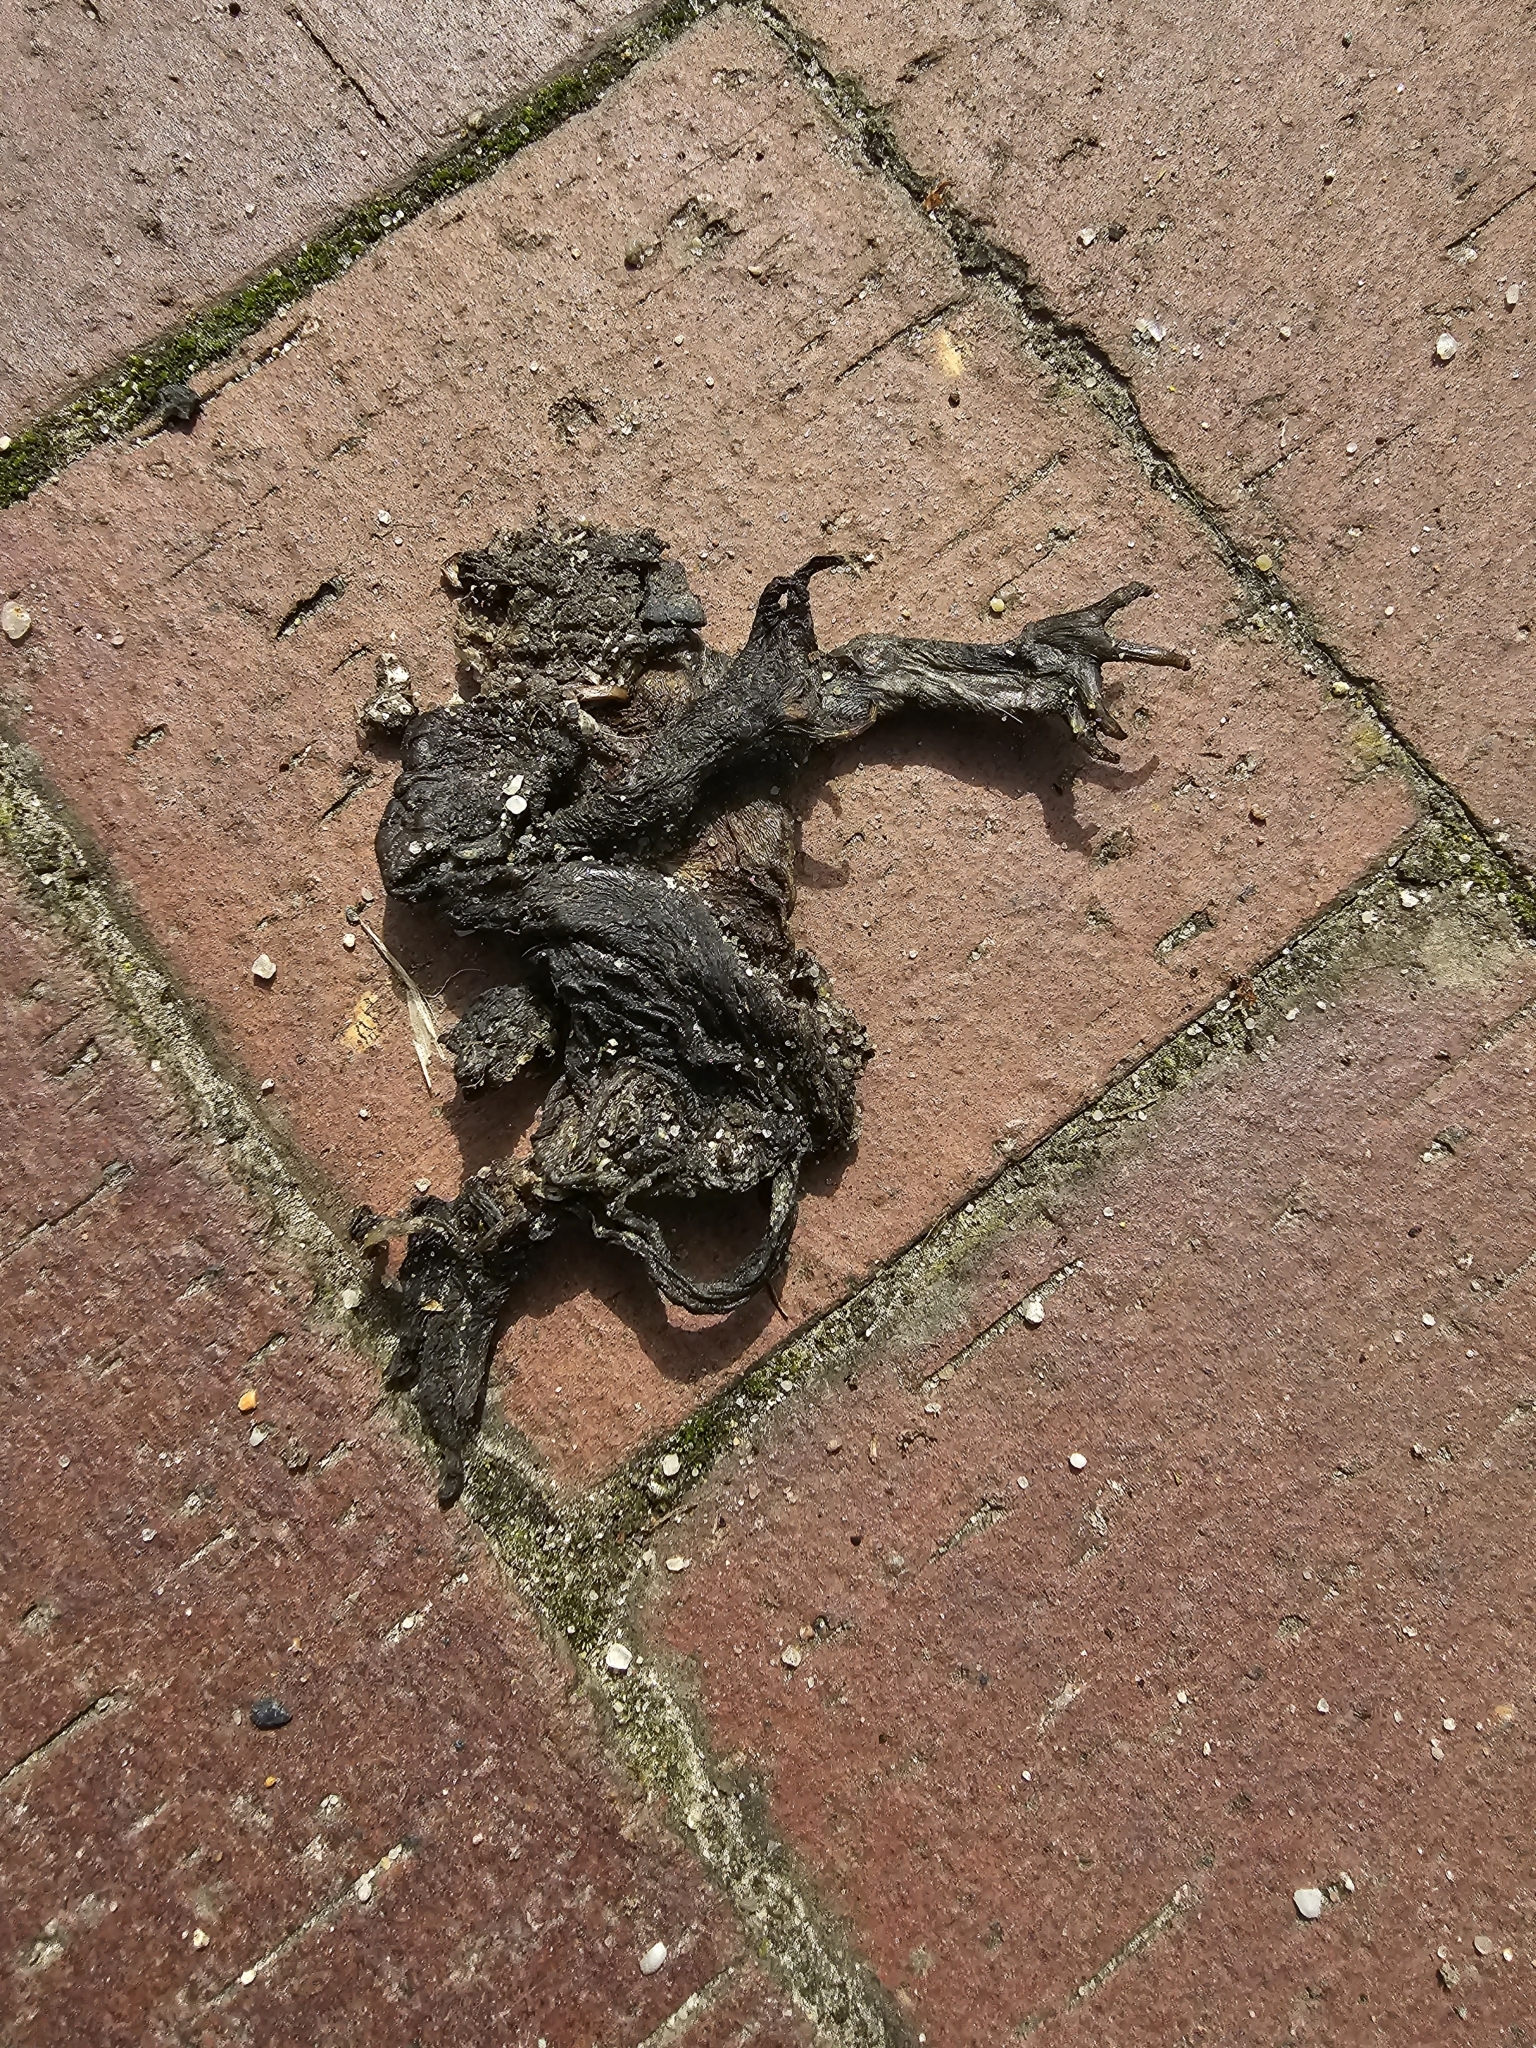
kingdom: Animalia
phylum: Chordata
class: Amphibia
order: Anura
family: Bufonidae
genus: Bufo
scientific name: Bufo bufo
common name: Common toad
